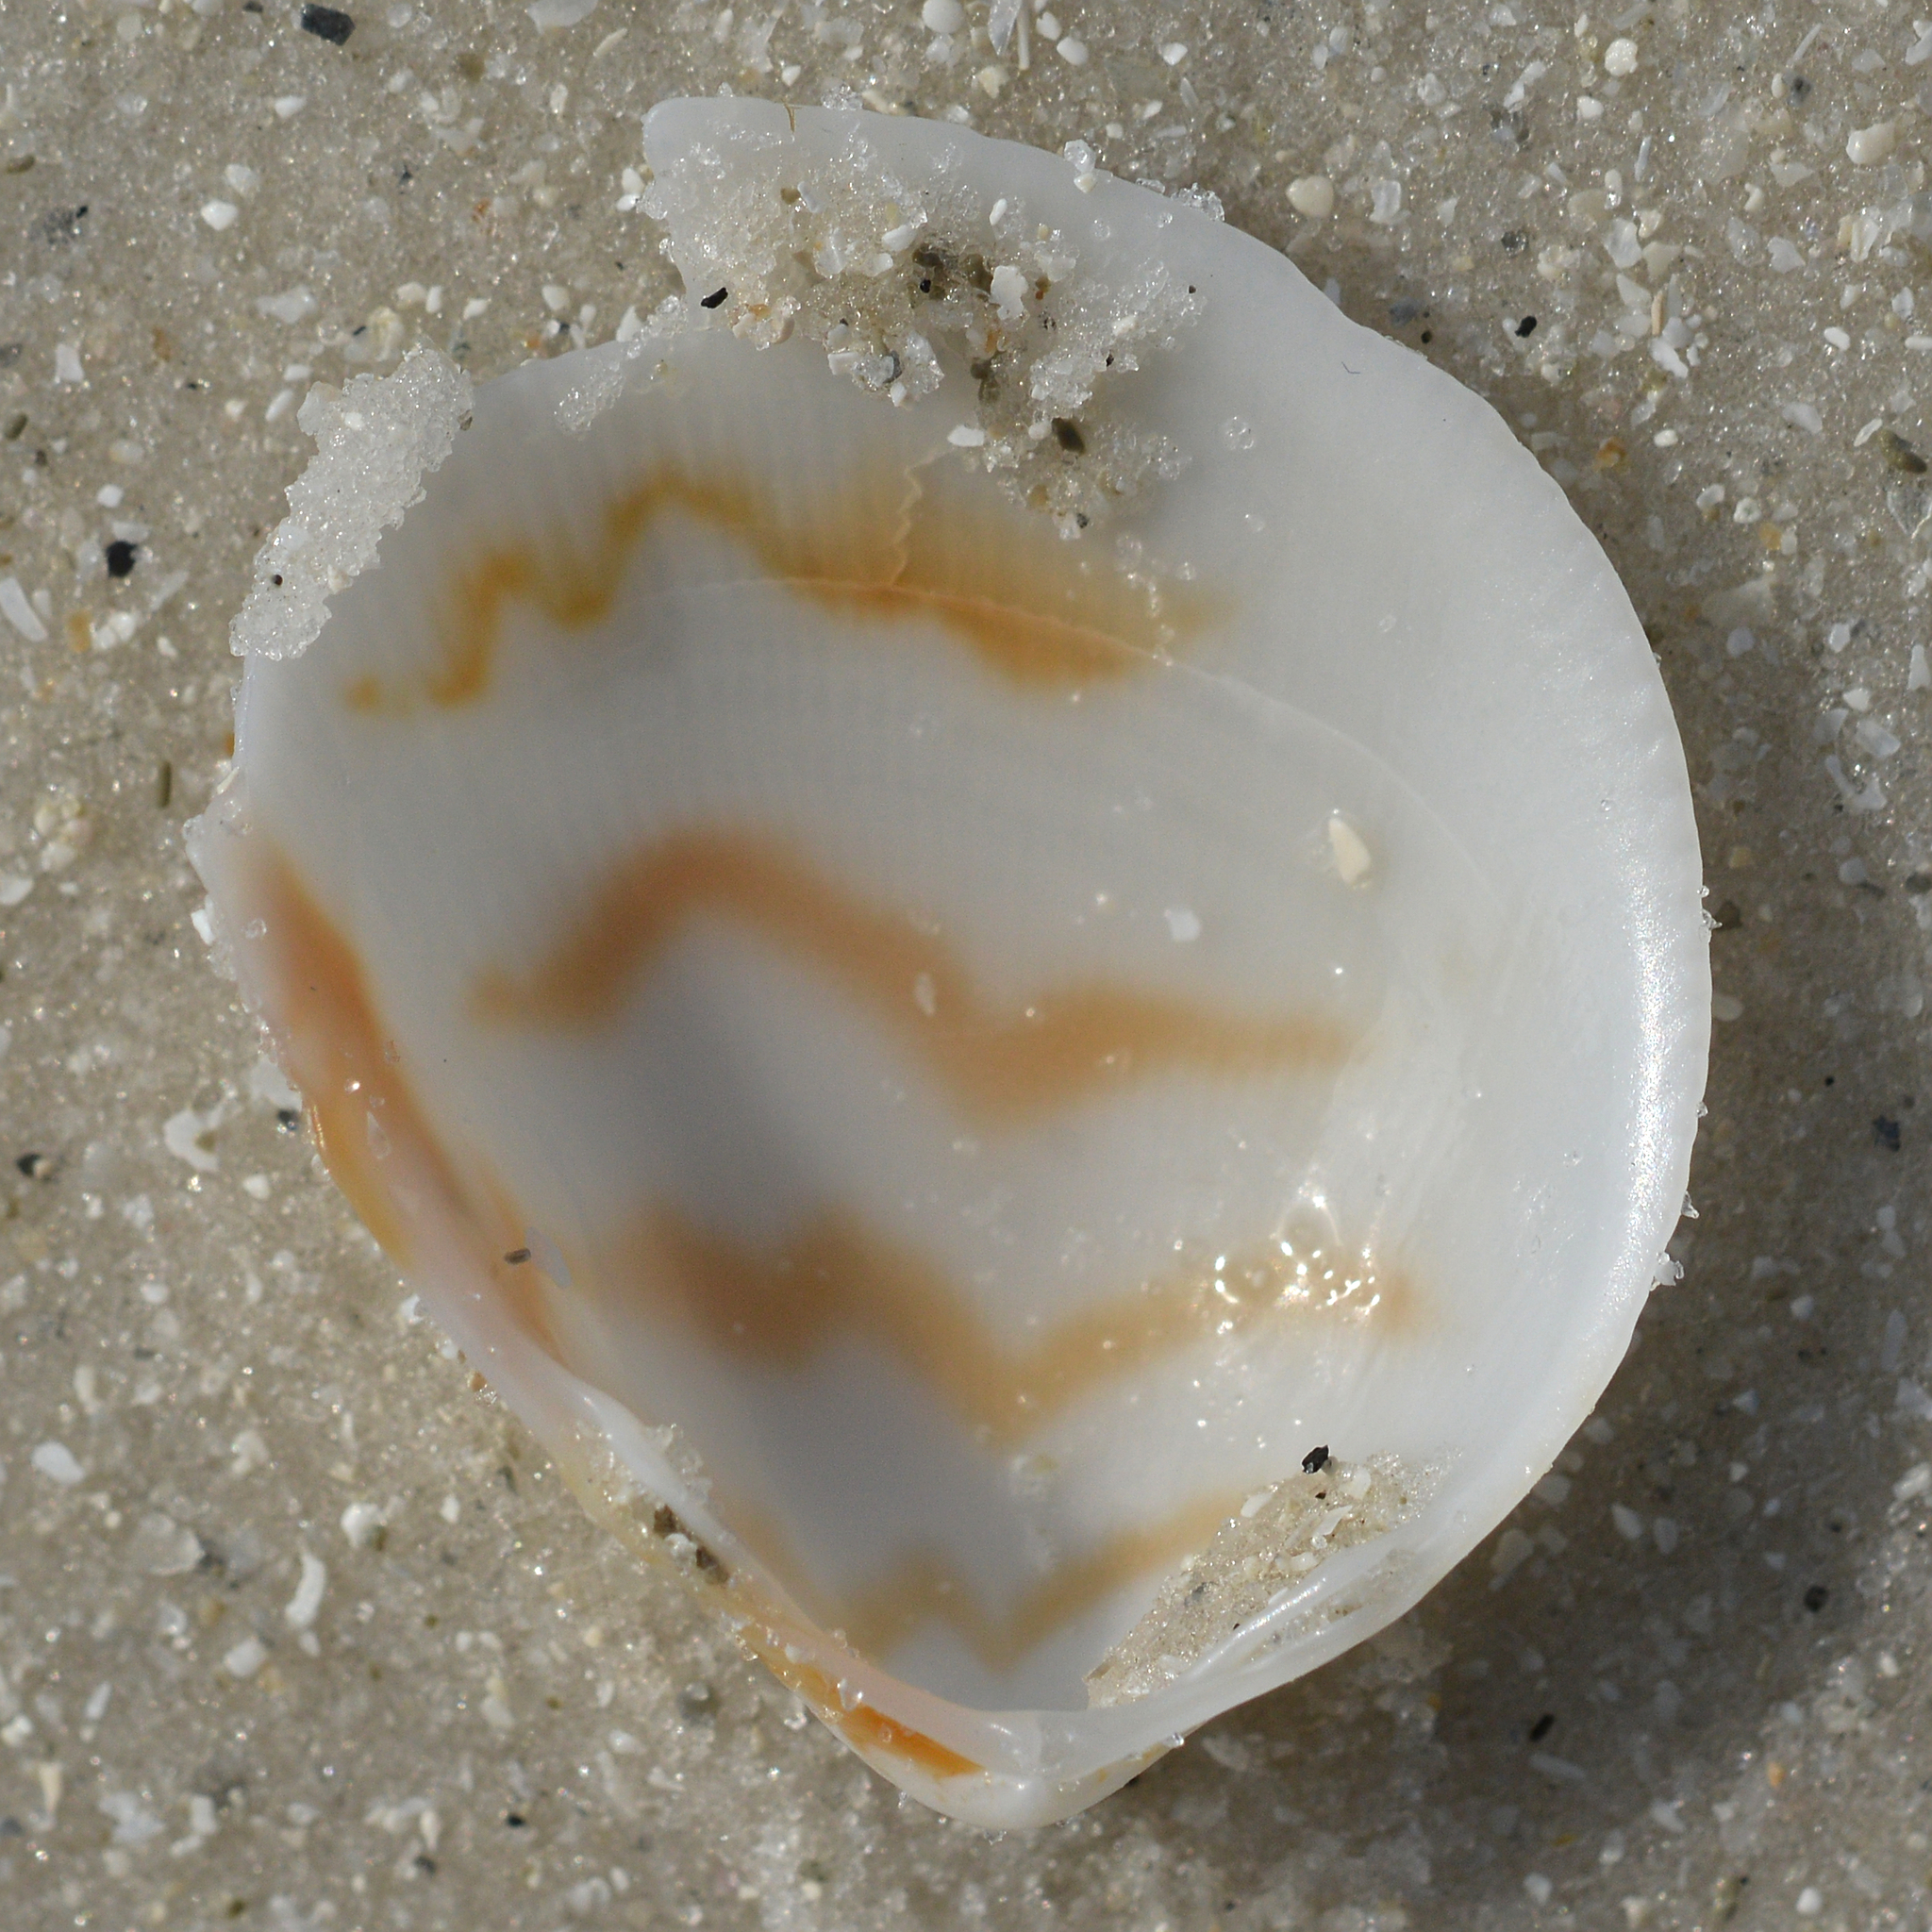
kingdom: Animalia
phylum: Mollusca
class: Bivalvia
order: Cardiida
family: Cardiidae
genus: Laevicardium
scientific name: Laevicardium pictum
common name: Painted eggcockle
